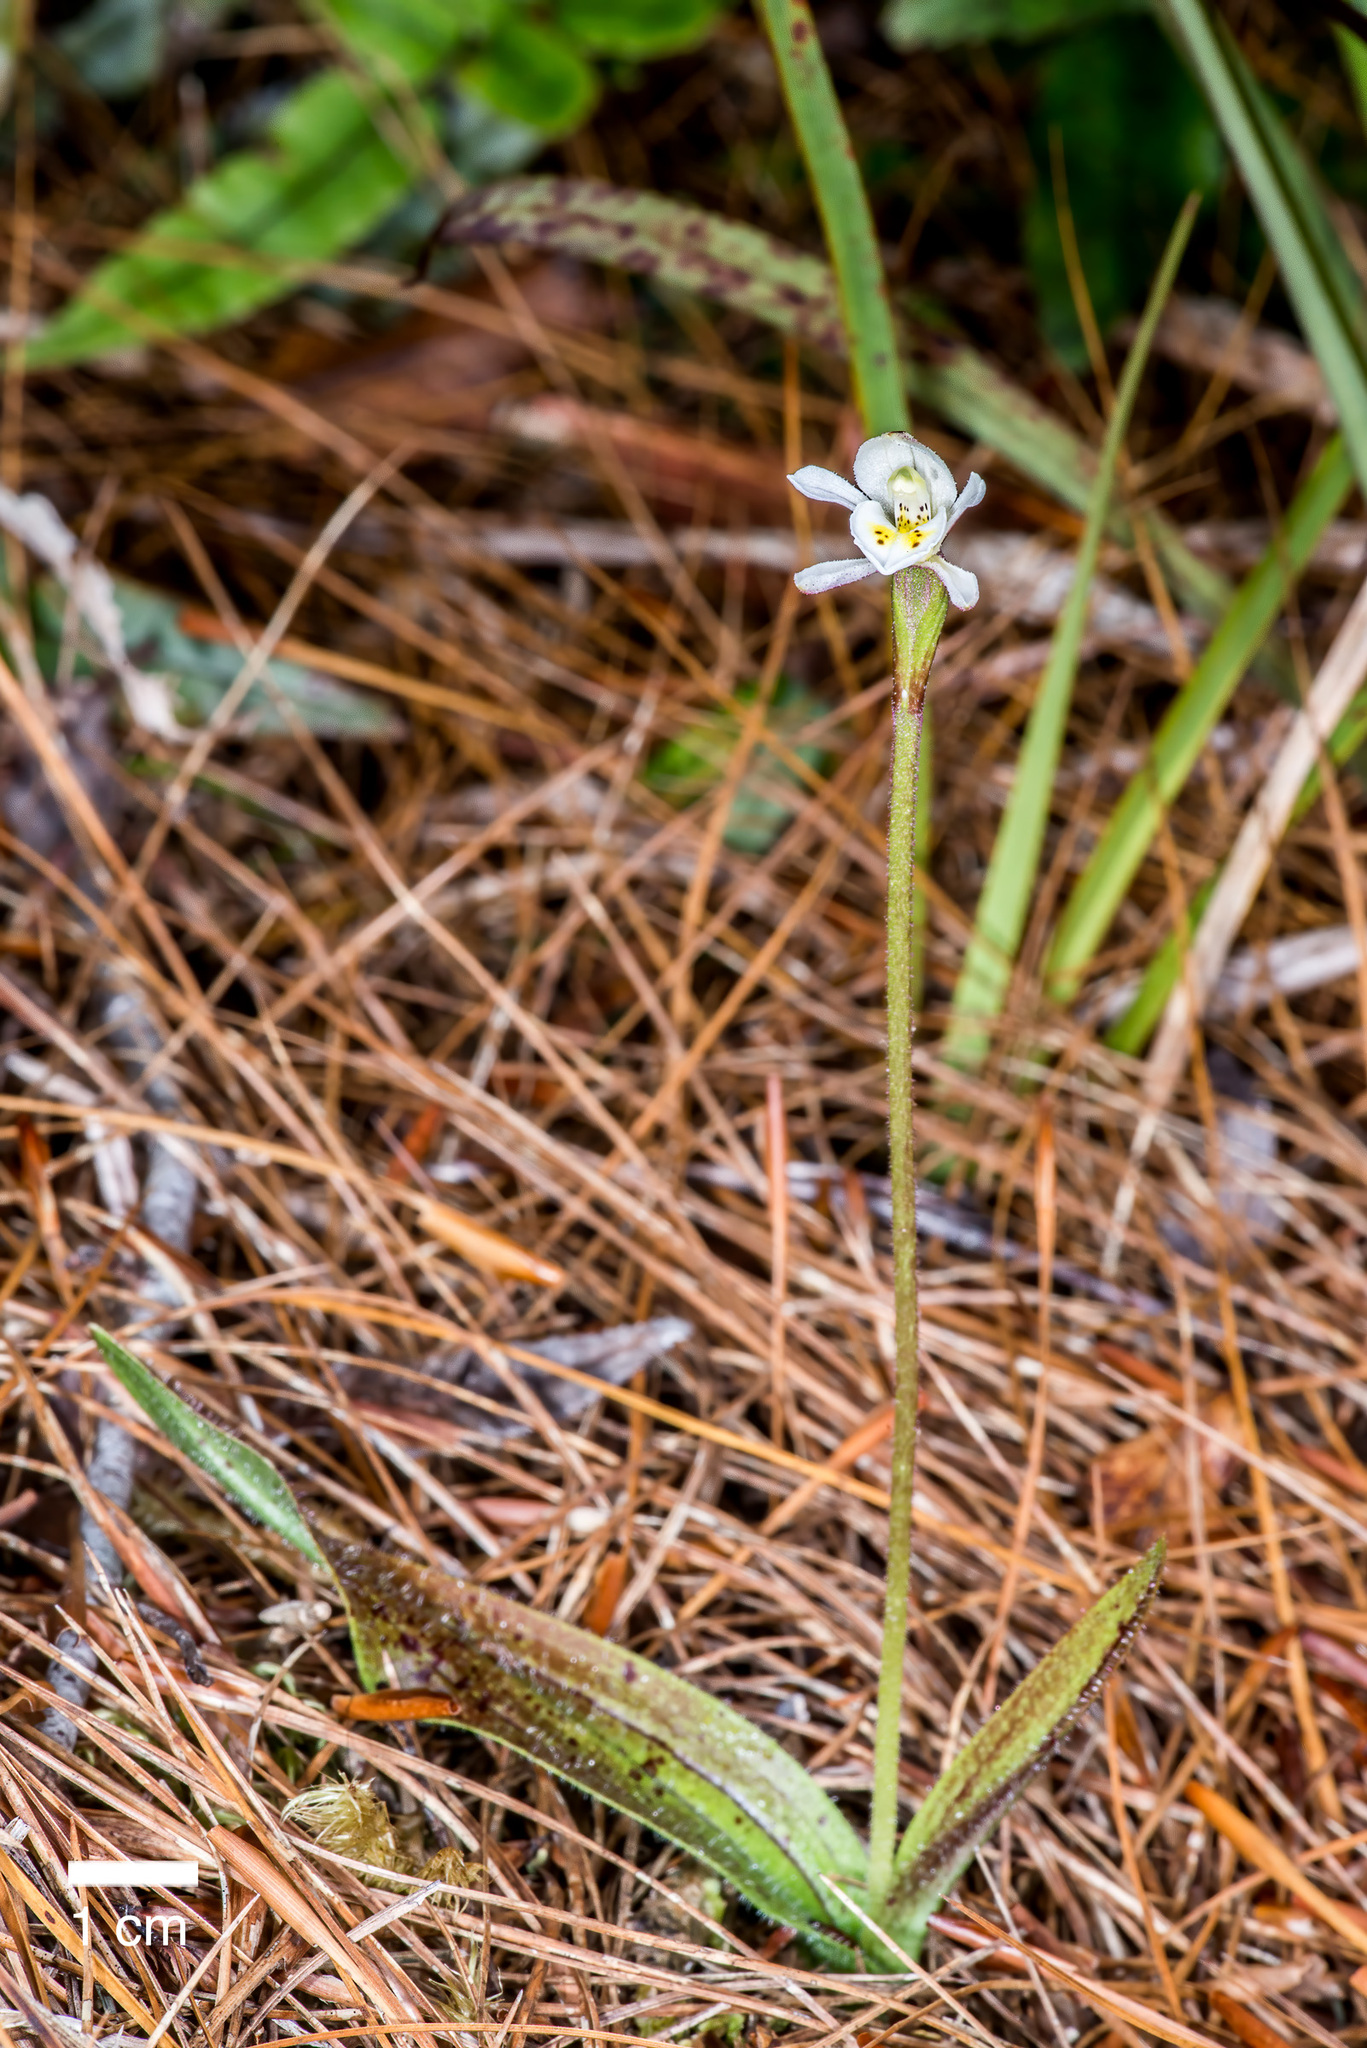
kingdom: Plantae
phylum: Tracheophyta
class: Liliopsida
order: Asparagales
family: Orchidaceae
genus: Aporostylis
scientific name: Aporostylis bifolia
